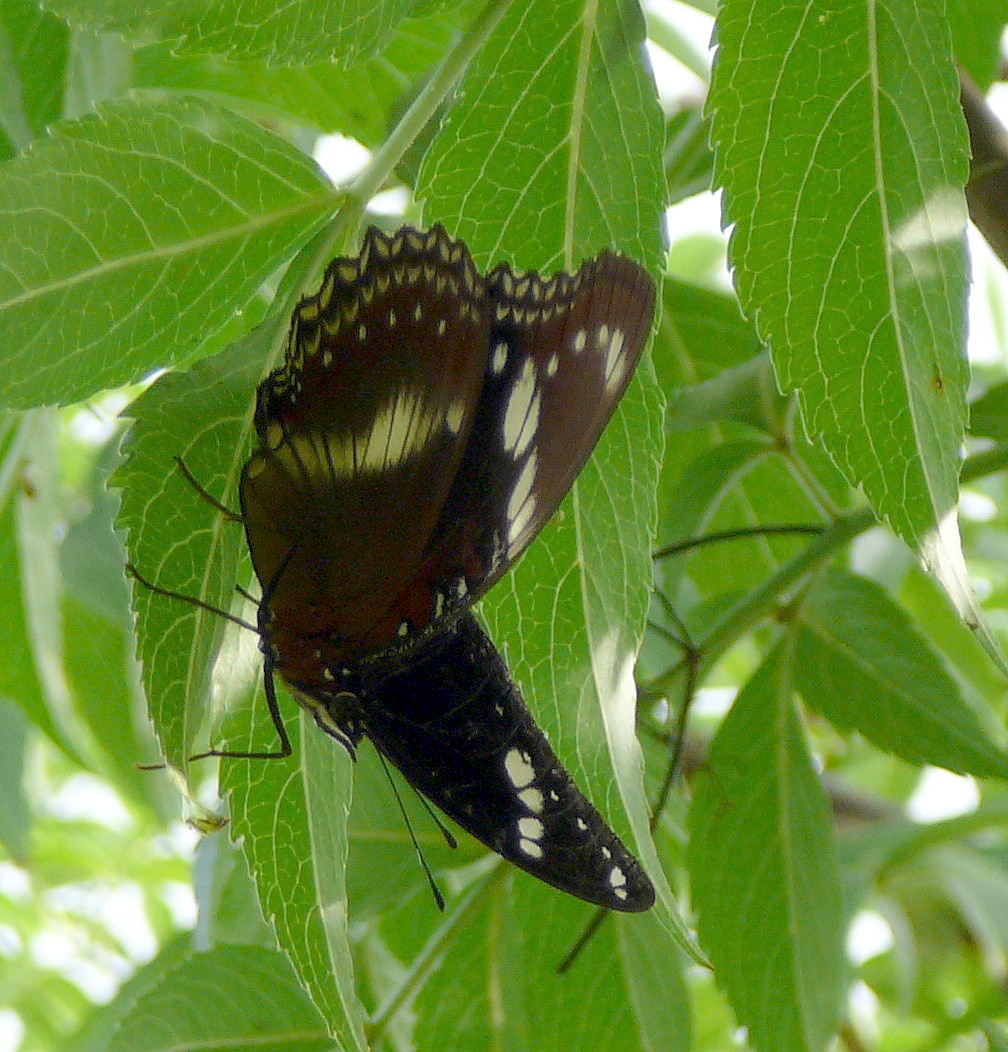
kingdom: Animalia
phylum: Arthropoda
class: Insecta
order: Lepidoptera
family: Nymphalidae
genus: Hypolimnas
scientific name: Hypolimnas bolina
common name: Great eggfly
